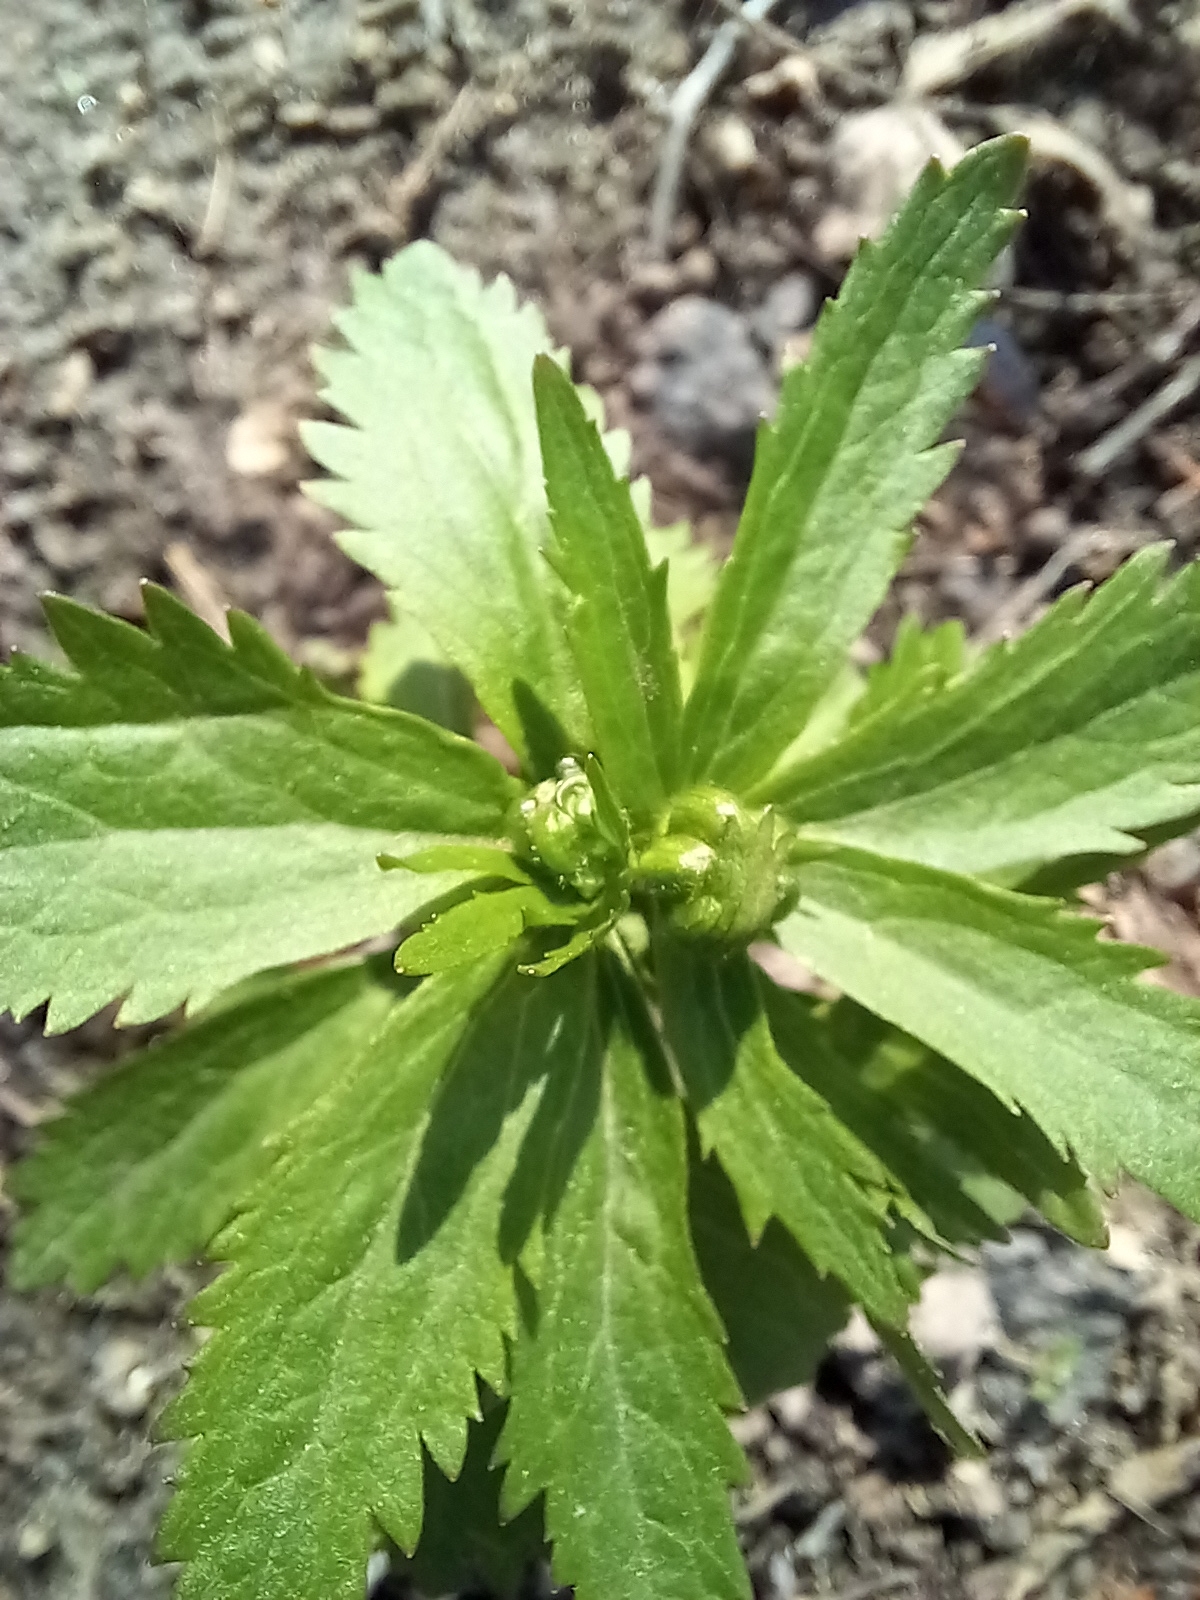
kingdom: Plantae
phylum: Tracheophyta
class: Magnoliopsida
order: Ranunculales
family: Ranunculaceae
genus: Ranunculus
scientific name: Ranunculus cassubicus
